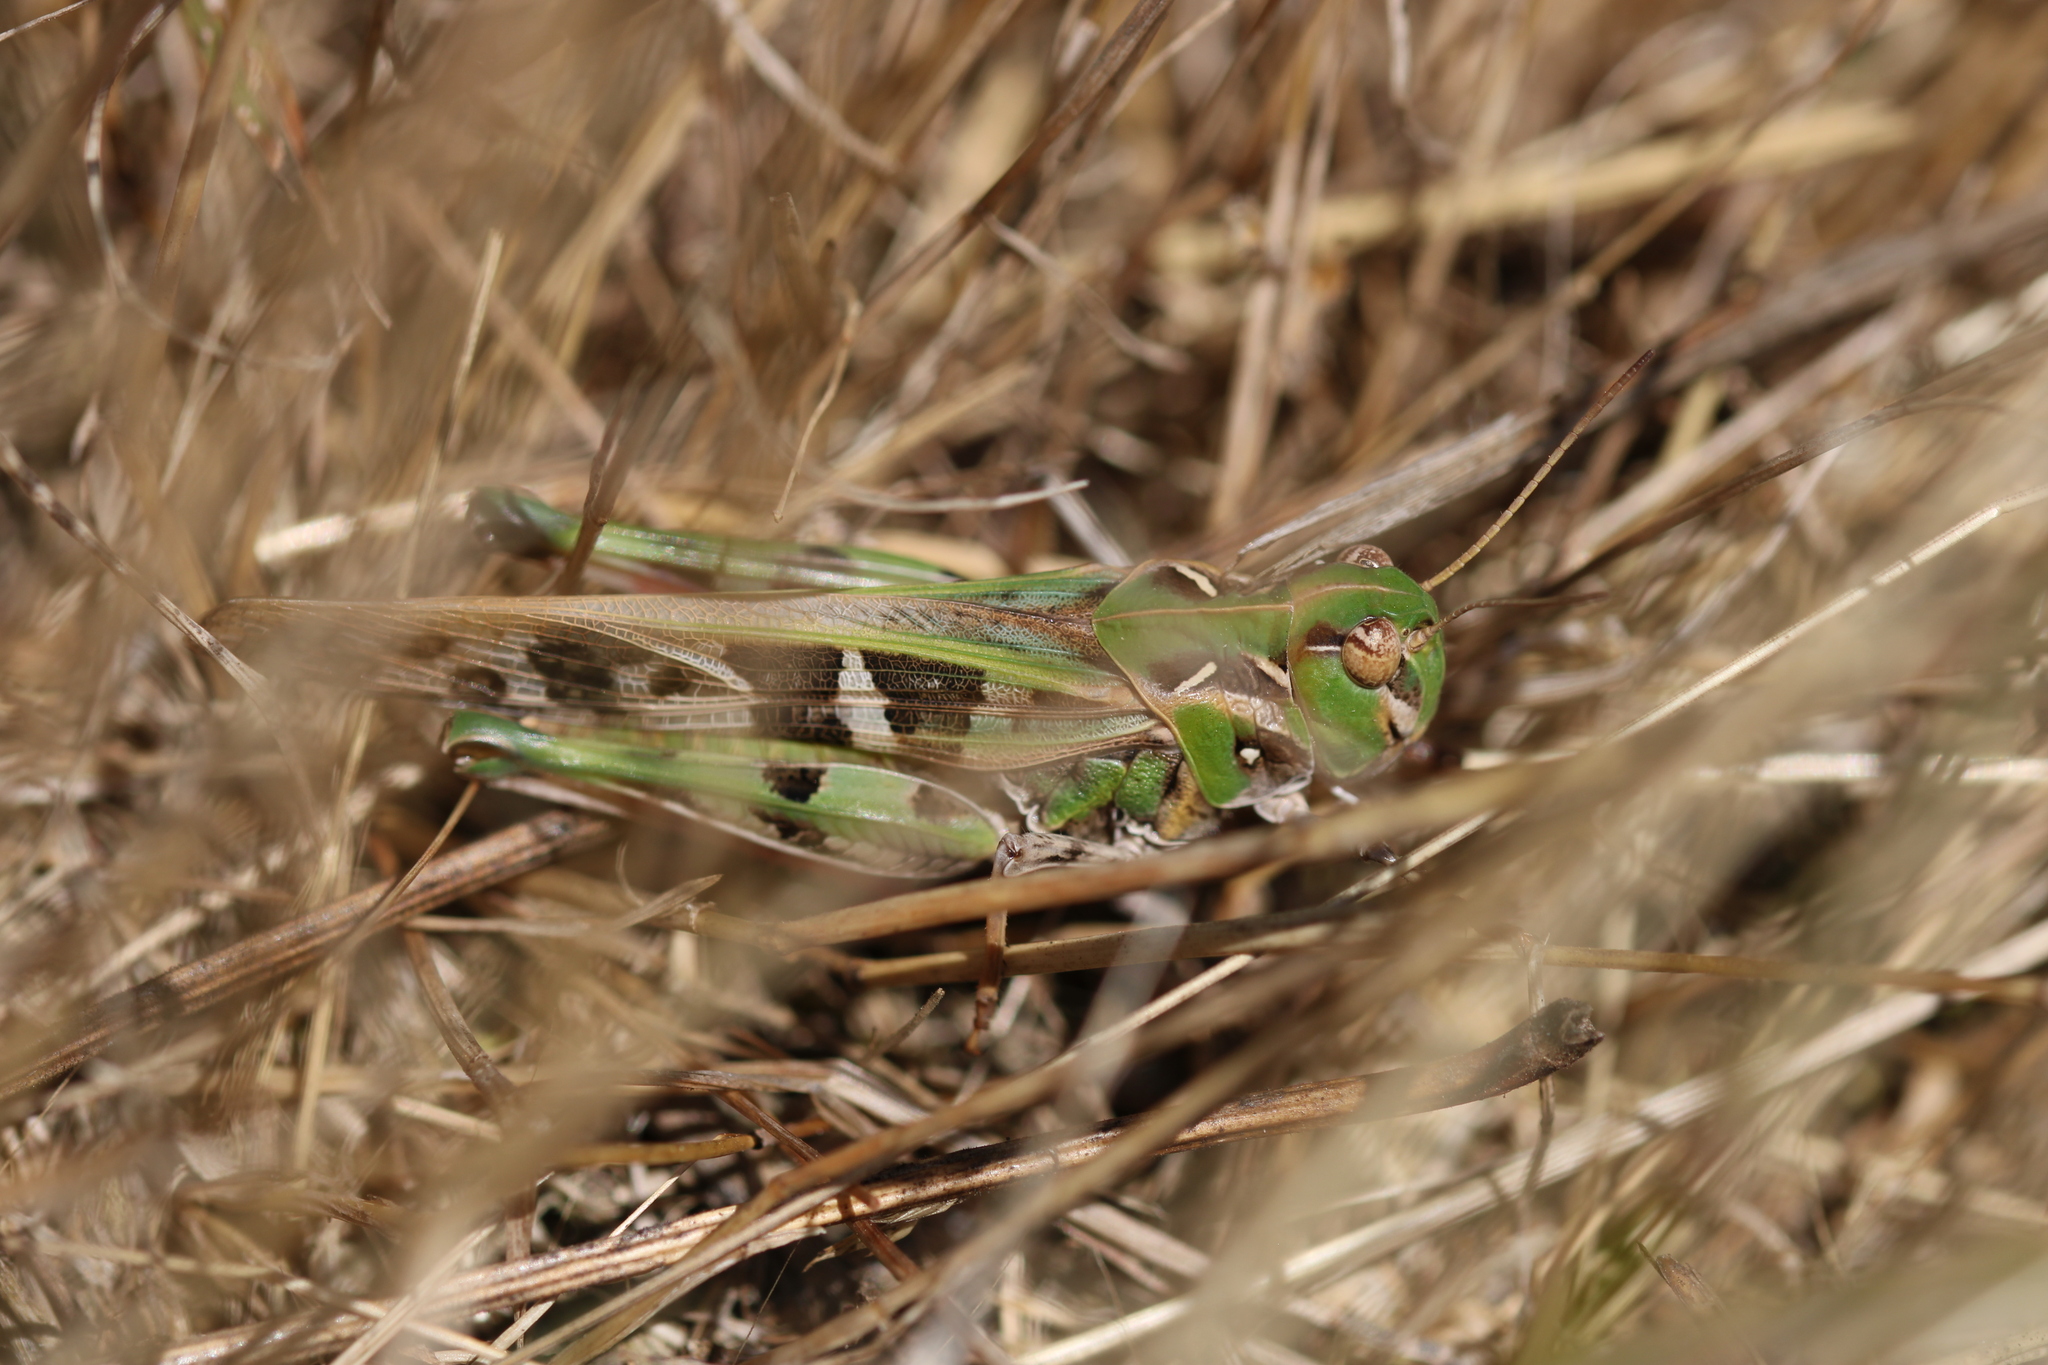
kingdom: Animalia
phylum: Arthropoda
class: Insecta
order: Orthoptera
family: Acrididae
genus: Oedaleus
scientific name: Oedaleus decorus
